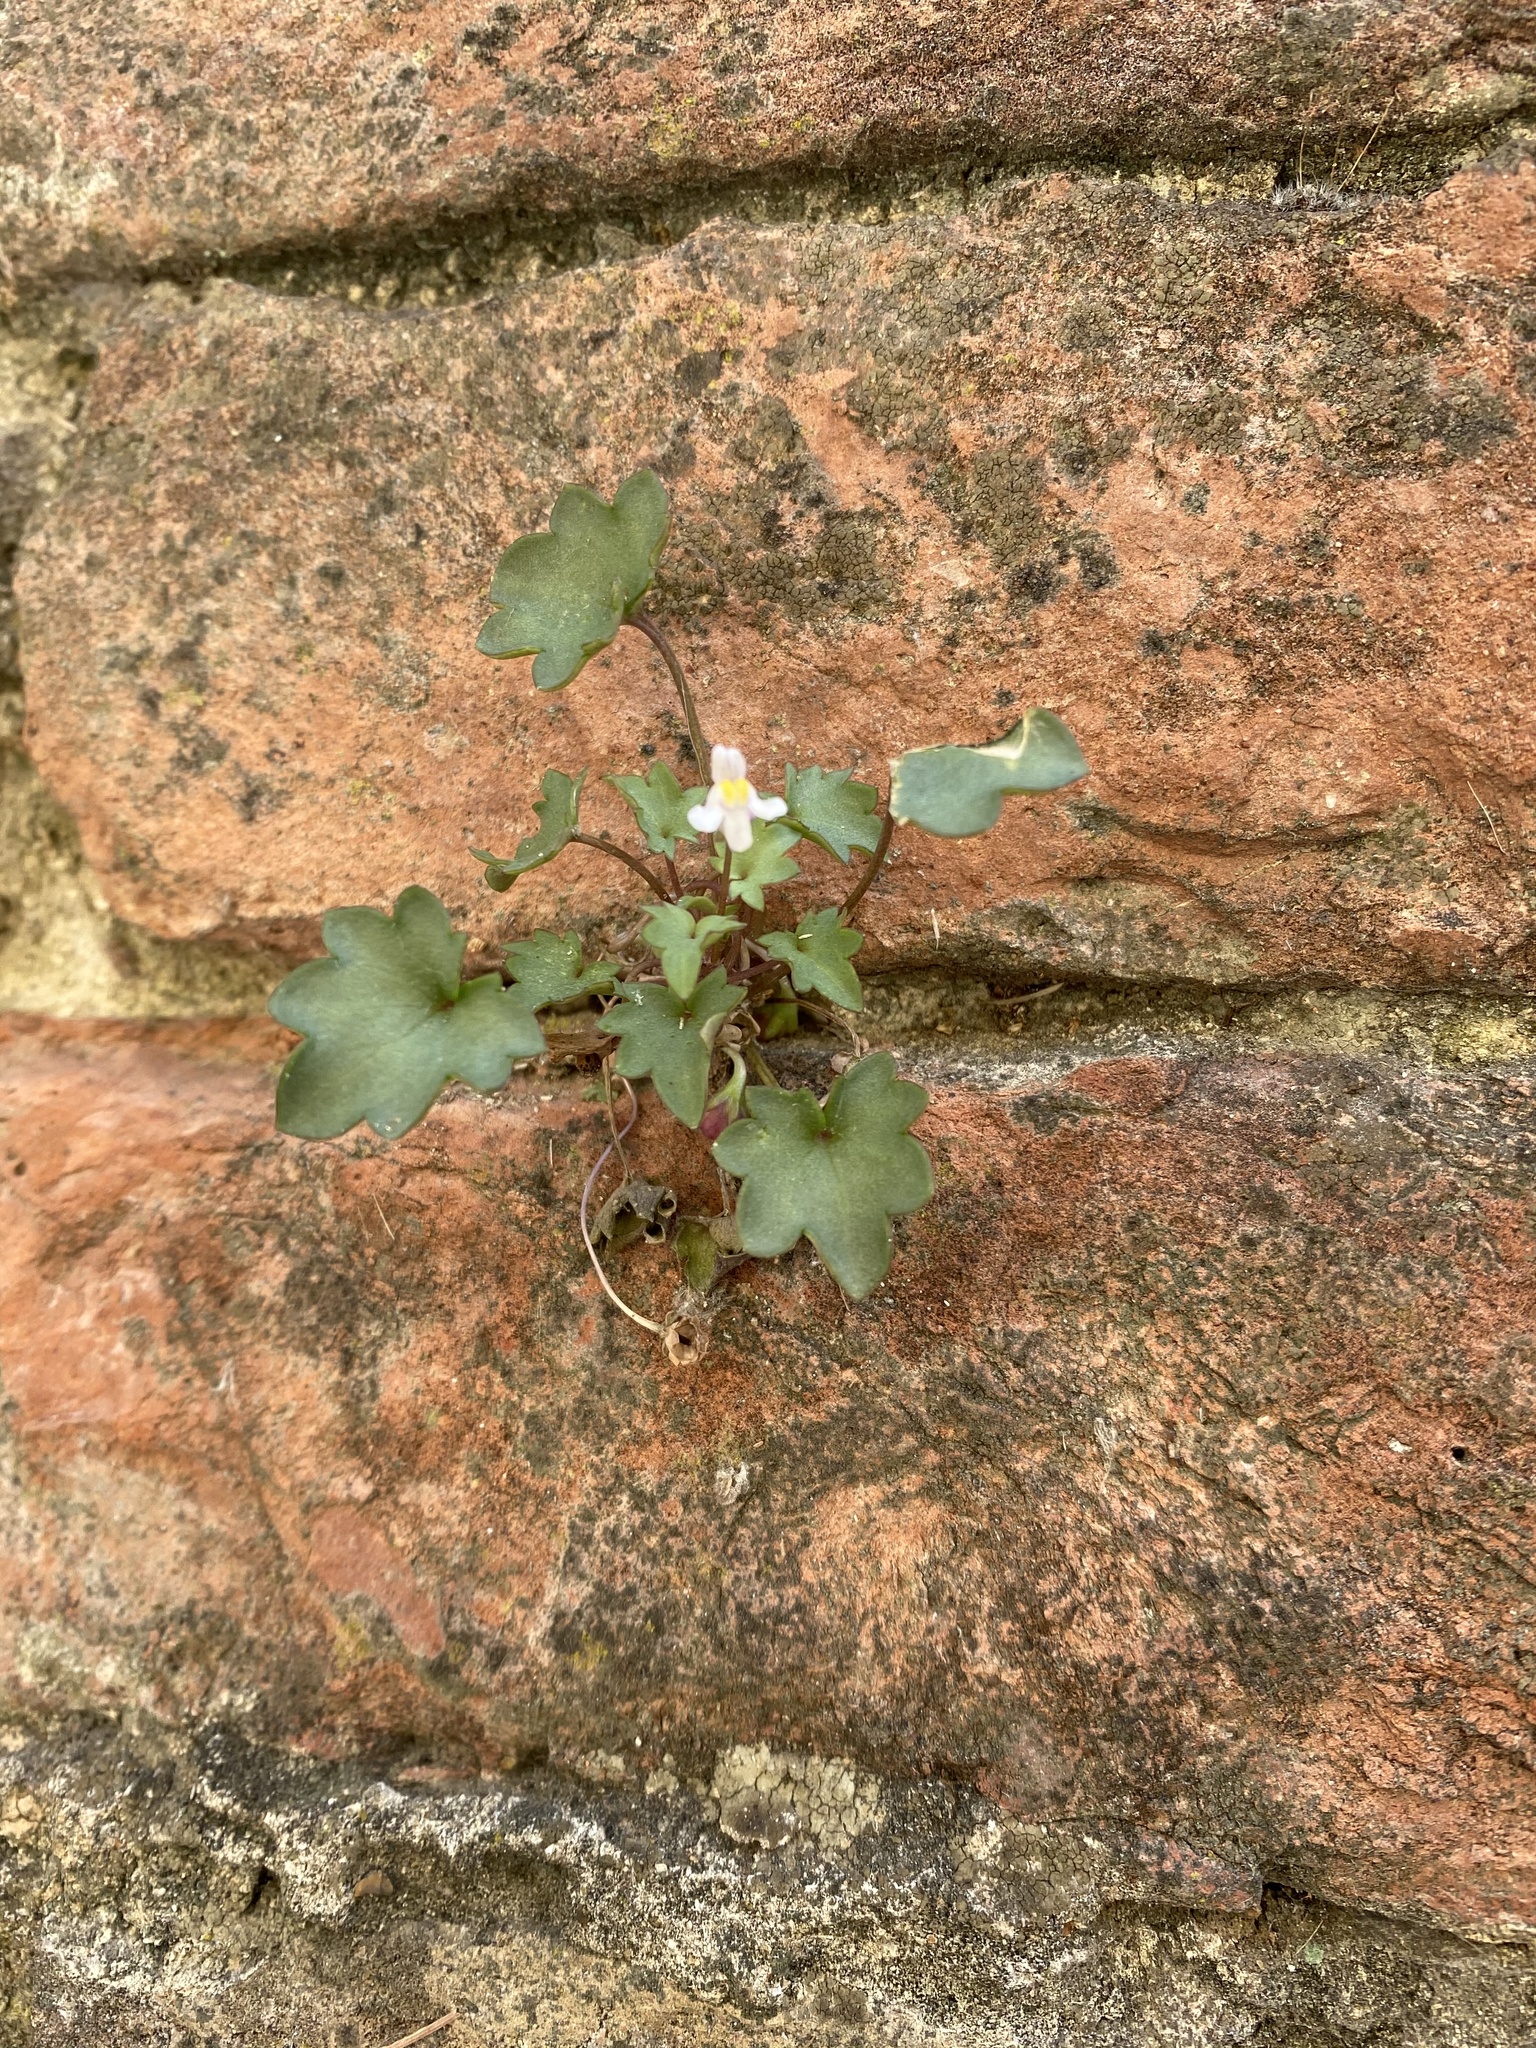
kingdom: Plantae
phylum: Tracheophyta
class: Magnoliopsida
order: Lamiales
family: Plantaginaceae
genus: Cymbalaria
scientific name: Cymbalaria muralis
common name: Ivy-leaved toadflax
